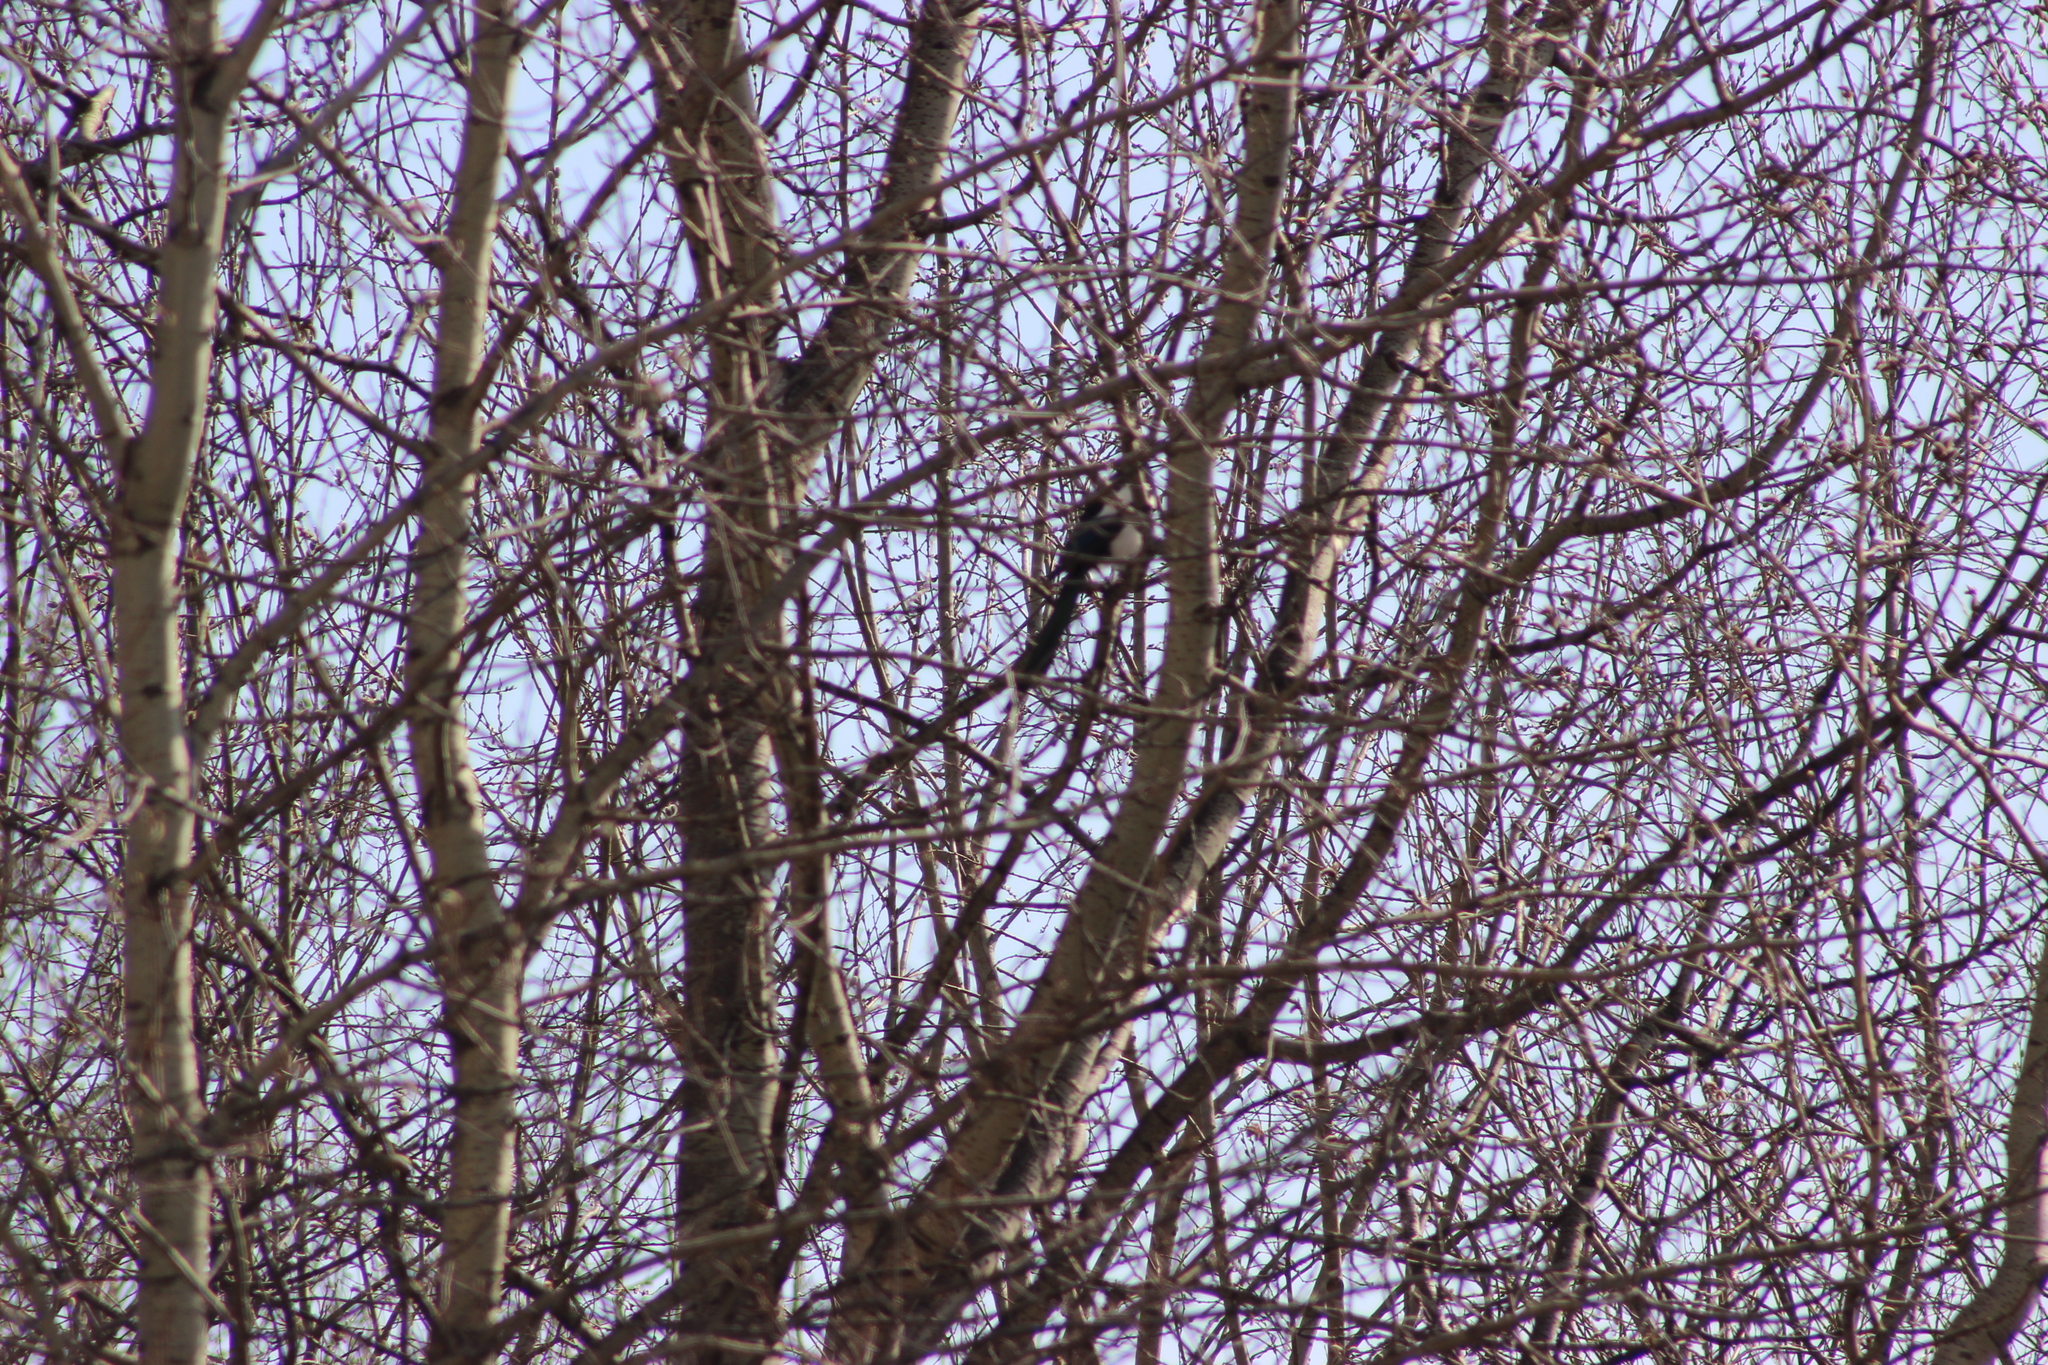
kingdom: Animalia
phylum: Chordata
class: Aves
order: Passeriformes
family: Corvidae
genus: Pica
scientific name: Pica pica
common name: Eurasian magpie
